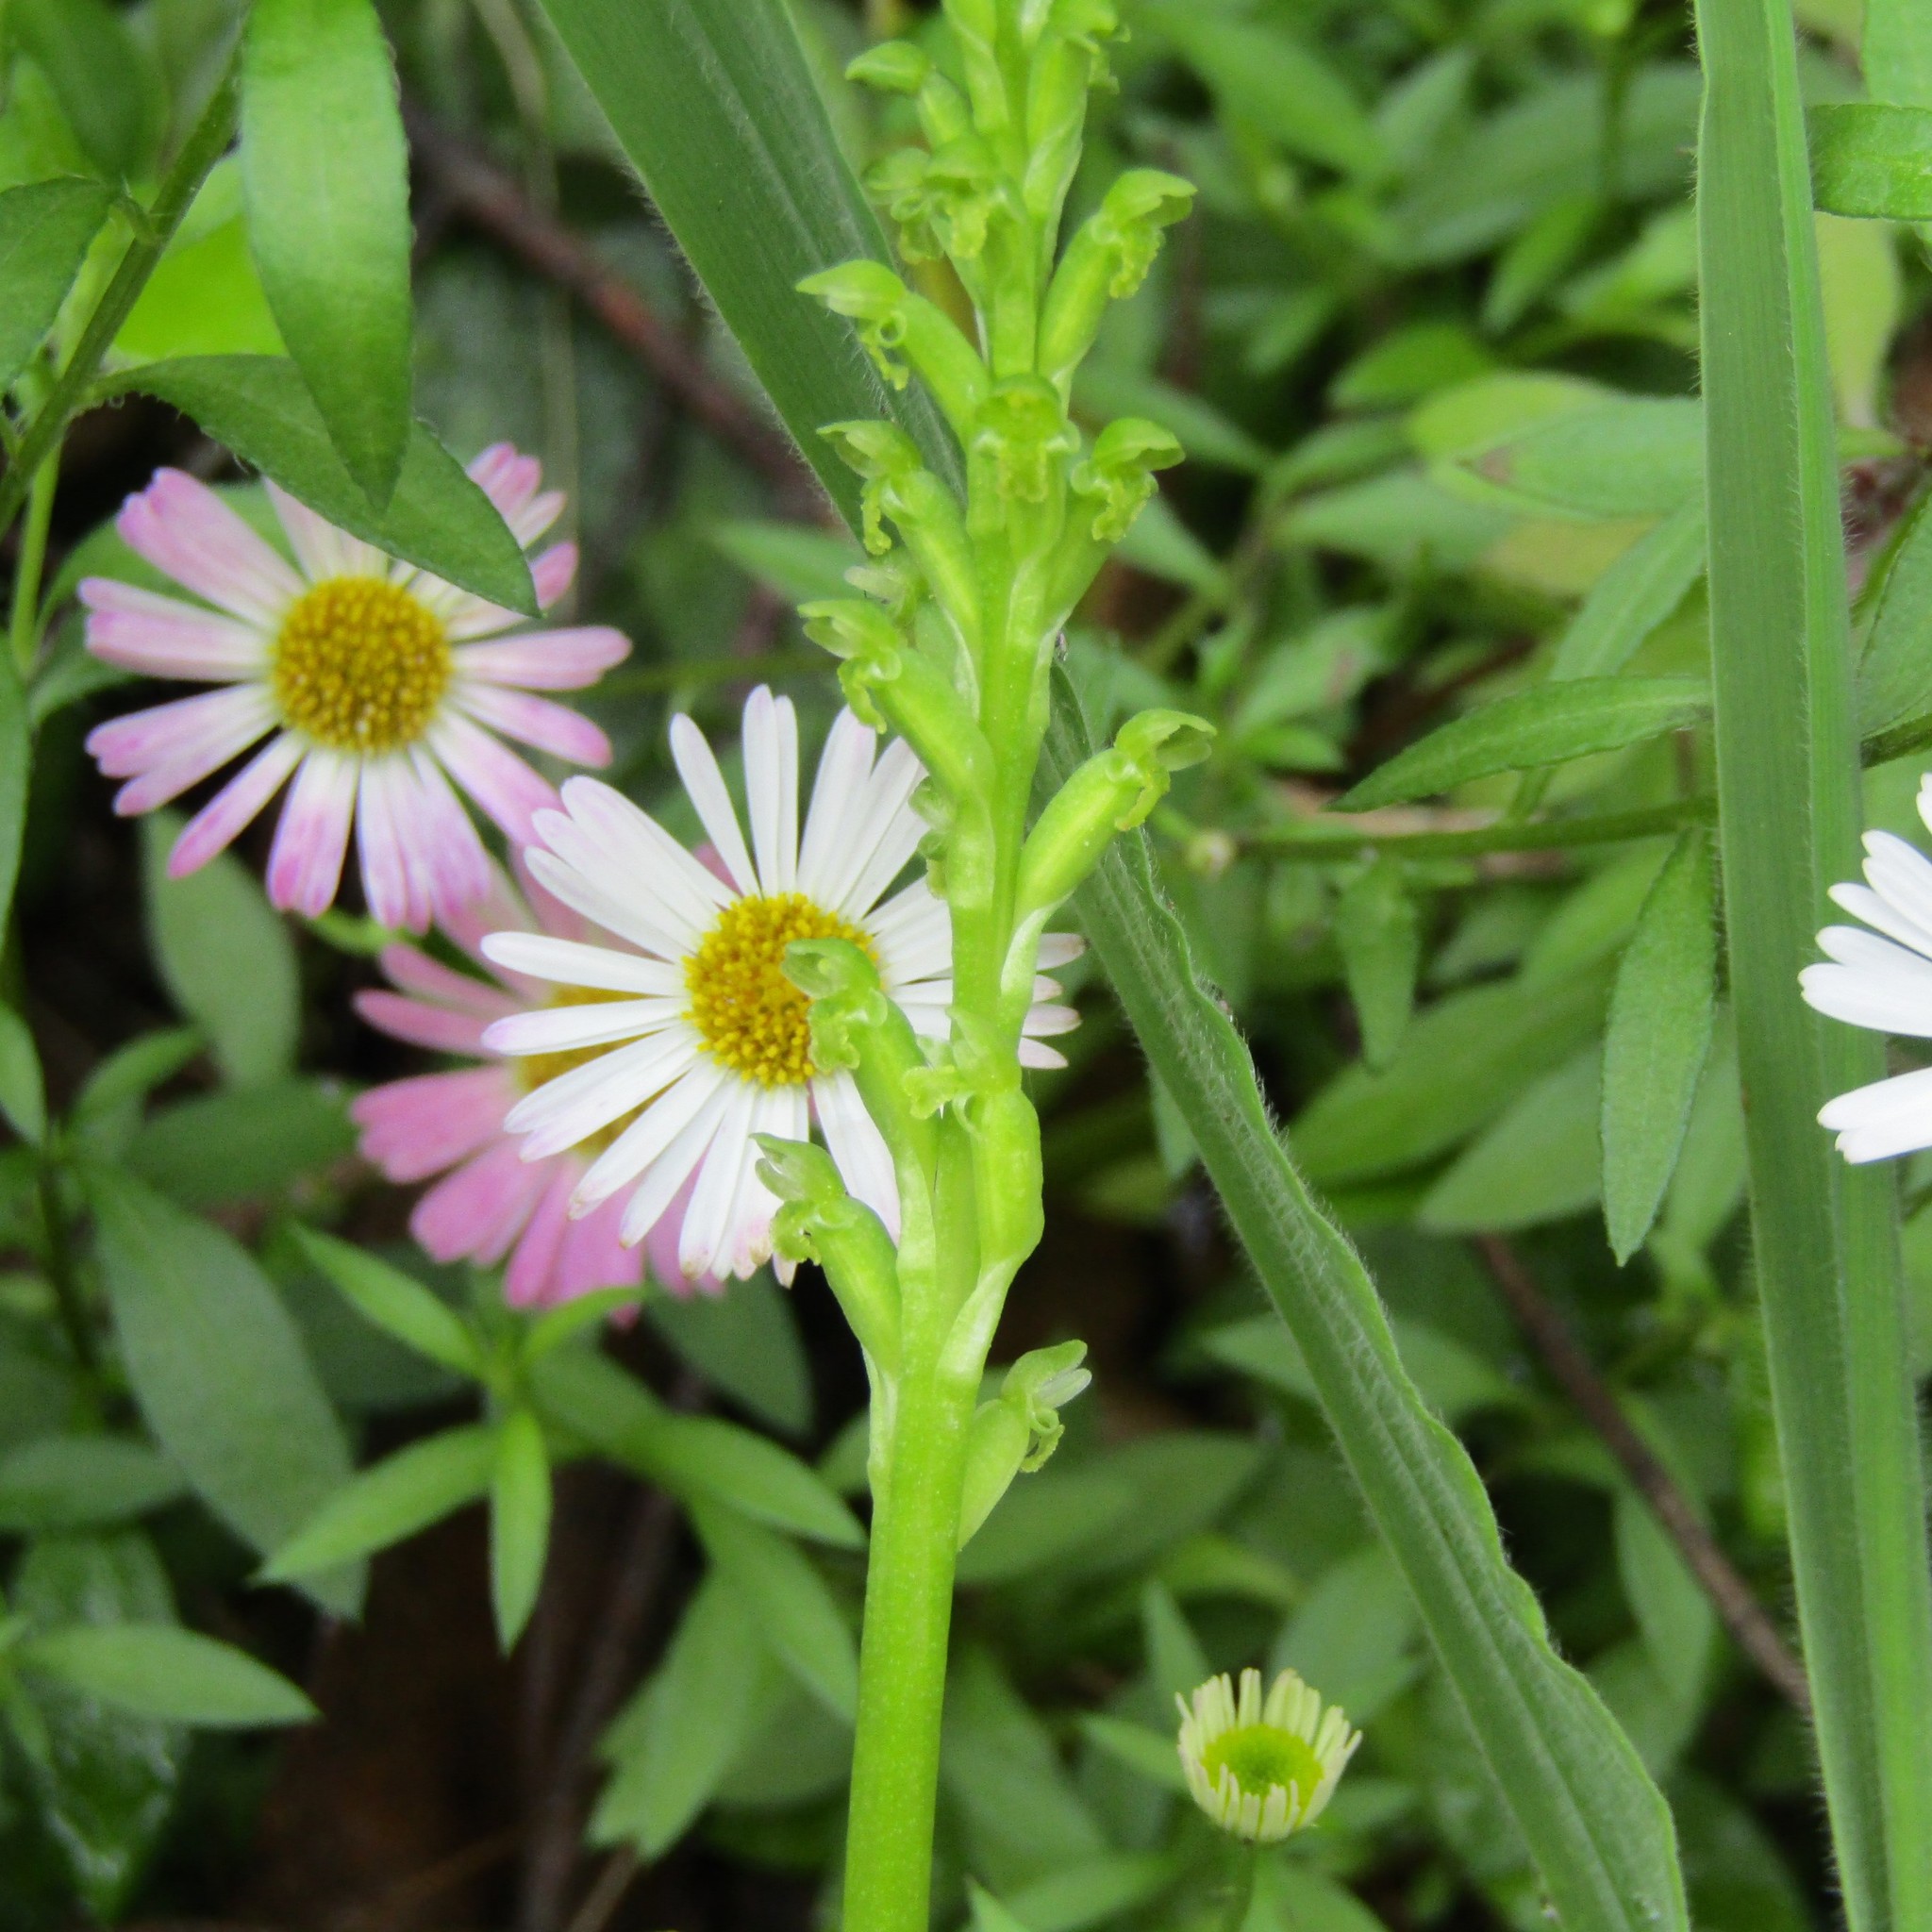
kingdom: Plantae
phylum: Tracheophyta
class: Liliopsida
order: Asparagales
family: Orchidaceae
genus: Microtis
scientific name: Microtis unifolia
